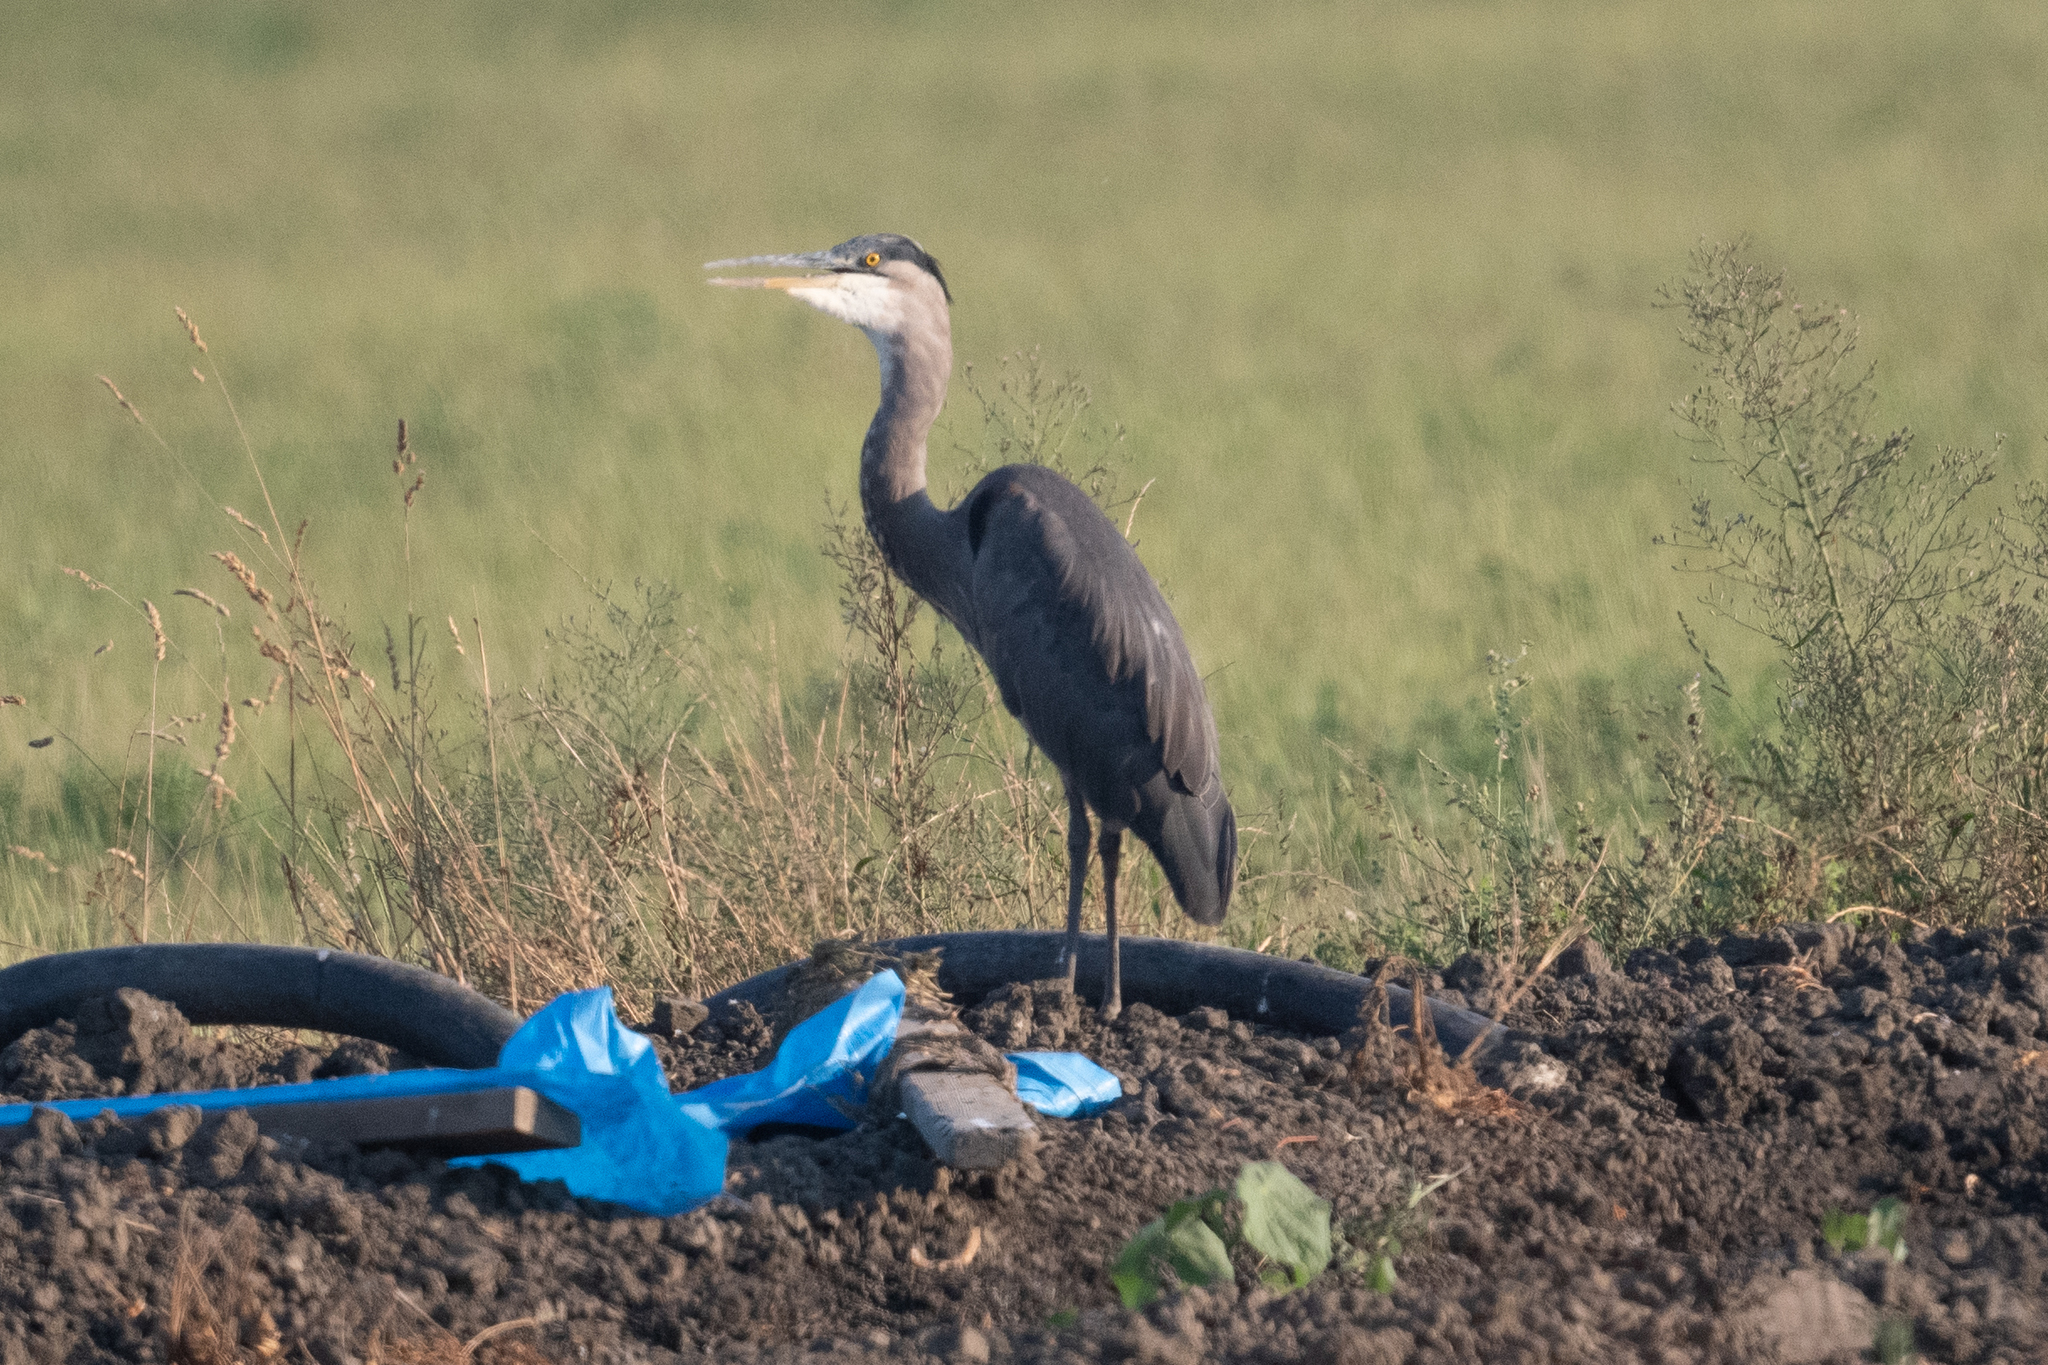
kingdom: Animalia
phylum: Chordata
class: Aves
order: Pelecaniformes
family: Ardeidae
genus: Ardea
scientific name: Ardea herodias
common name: Great blue heron
